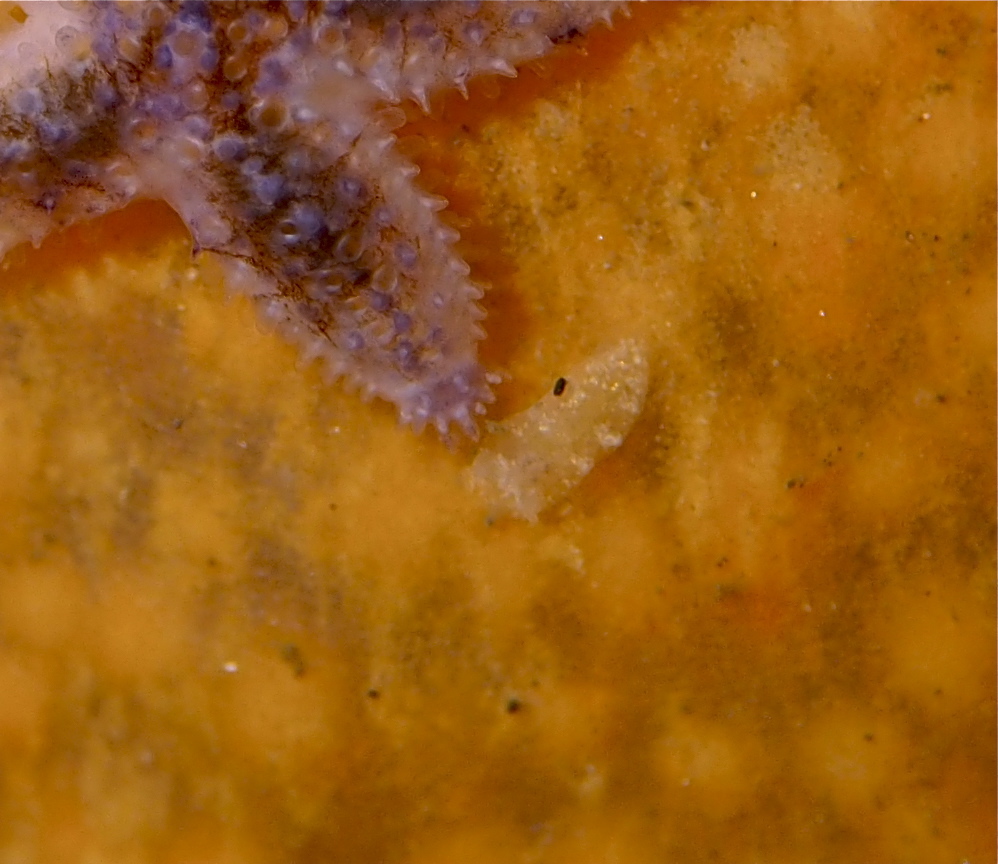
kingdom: Animalia
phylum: Mollusca
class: Gastropoda
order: Nudibranchia
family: Tritoniidae
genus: Tritonia
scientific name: Tritonia hombergii
